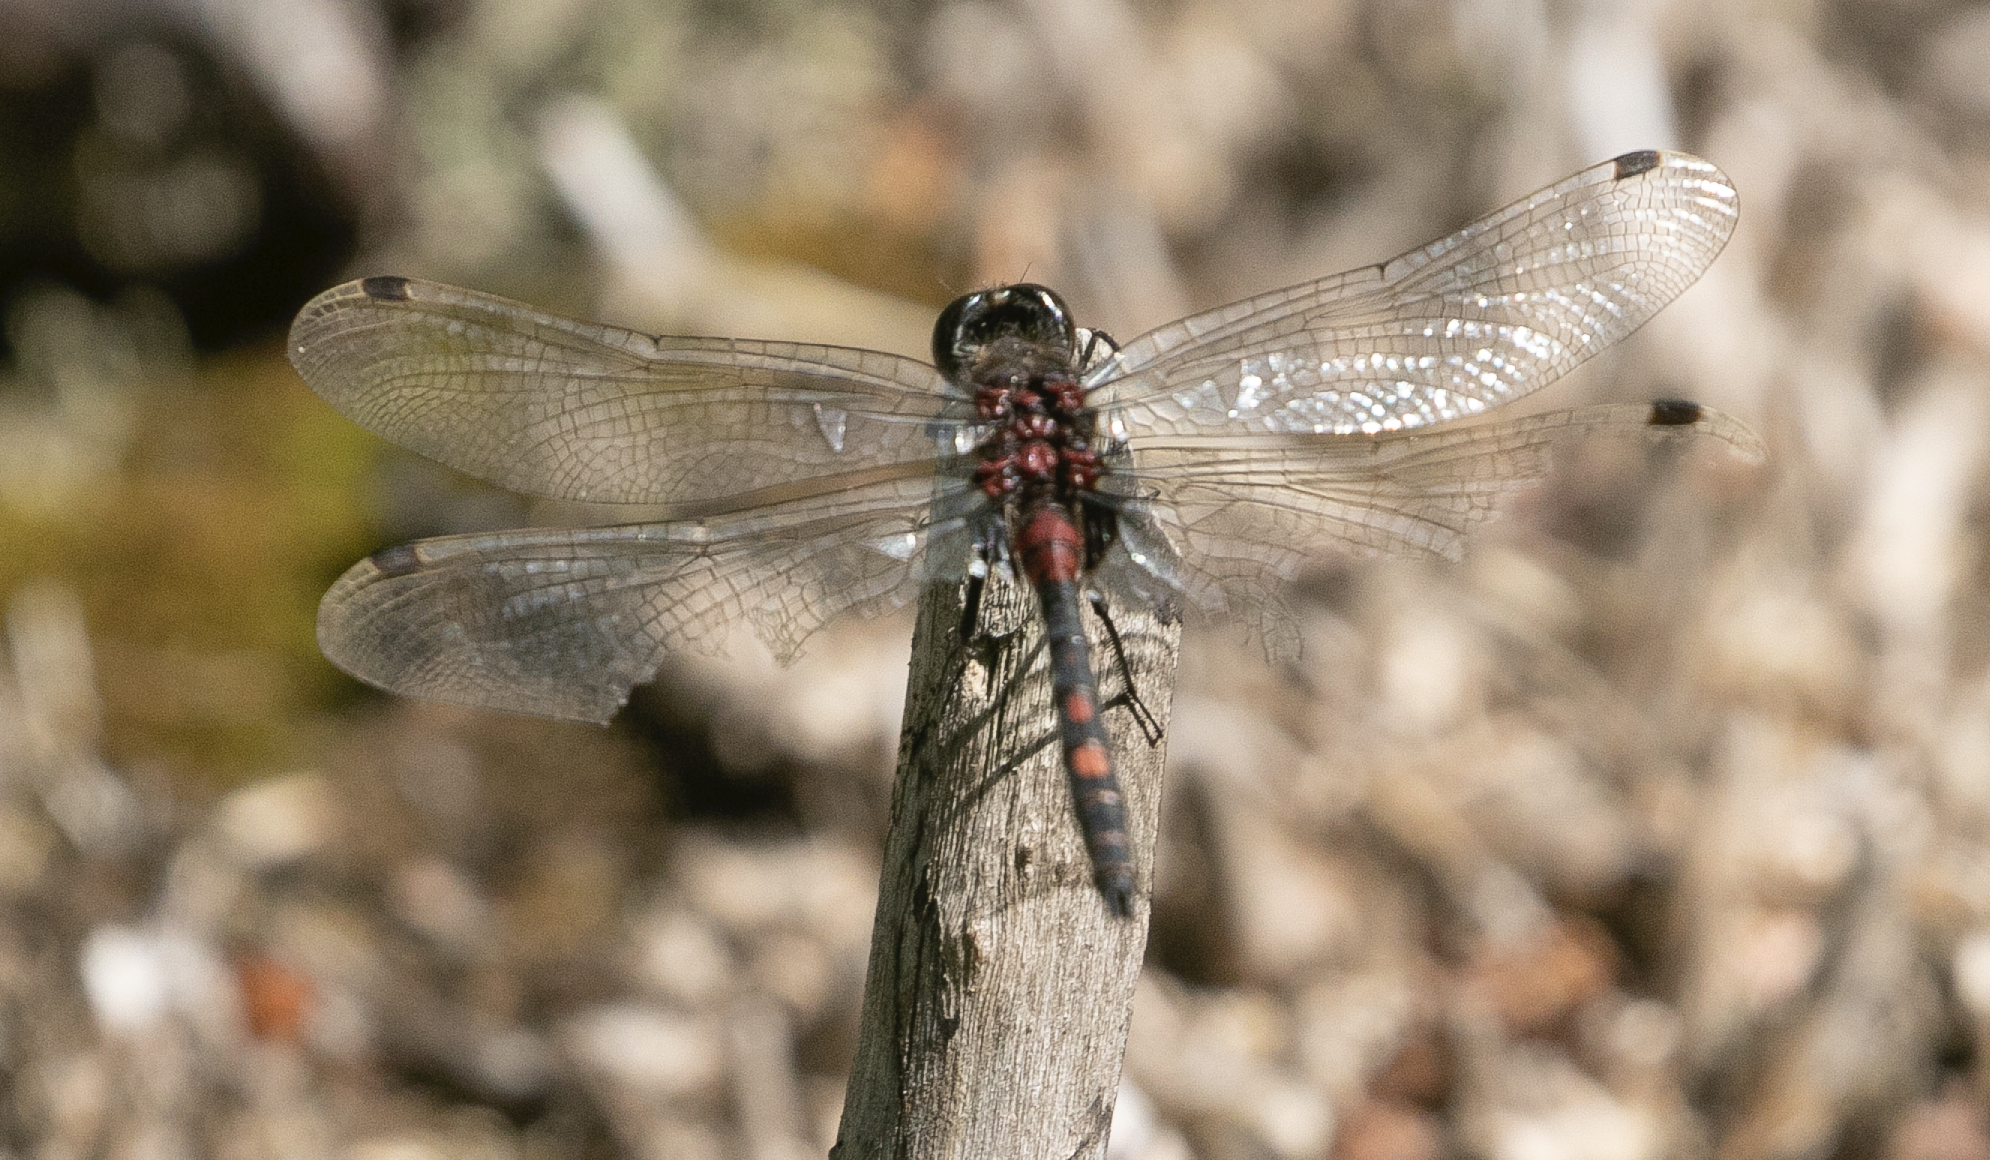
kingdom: Animalia
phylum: Arthropoda
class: Insecta
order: Odonata
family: Libellulidae
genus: Leucorrhinia
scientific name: Leucorrhinia dubia
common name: White-faced darter
